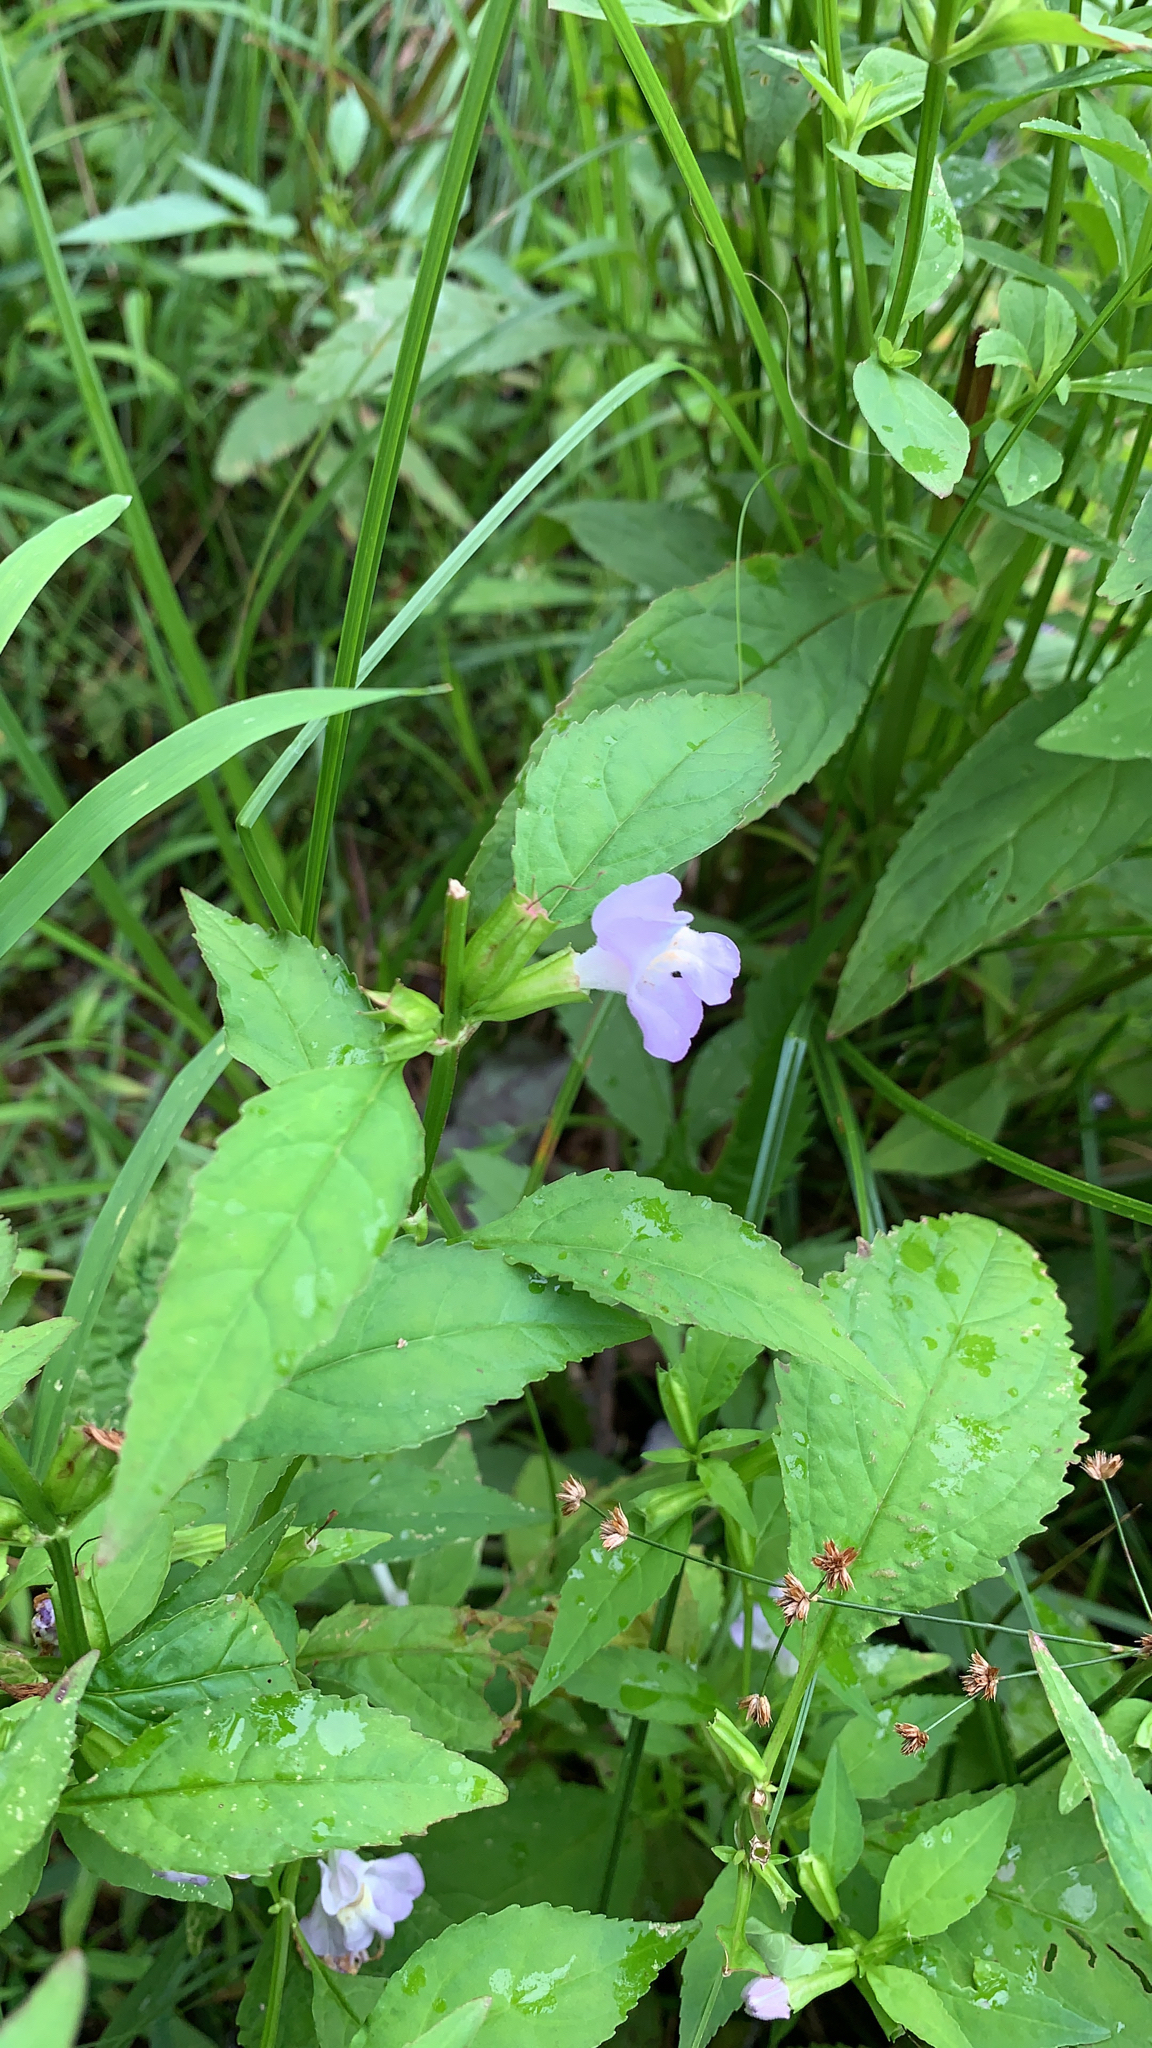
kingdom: Plantae
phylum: Tracheophyta
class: Magnoliopsida
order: Lamiales
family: Phrymaceae
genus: Mimulus
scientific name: Mimulus alatus
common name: Sharp-wing monkey-flower
